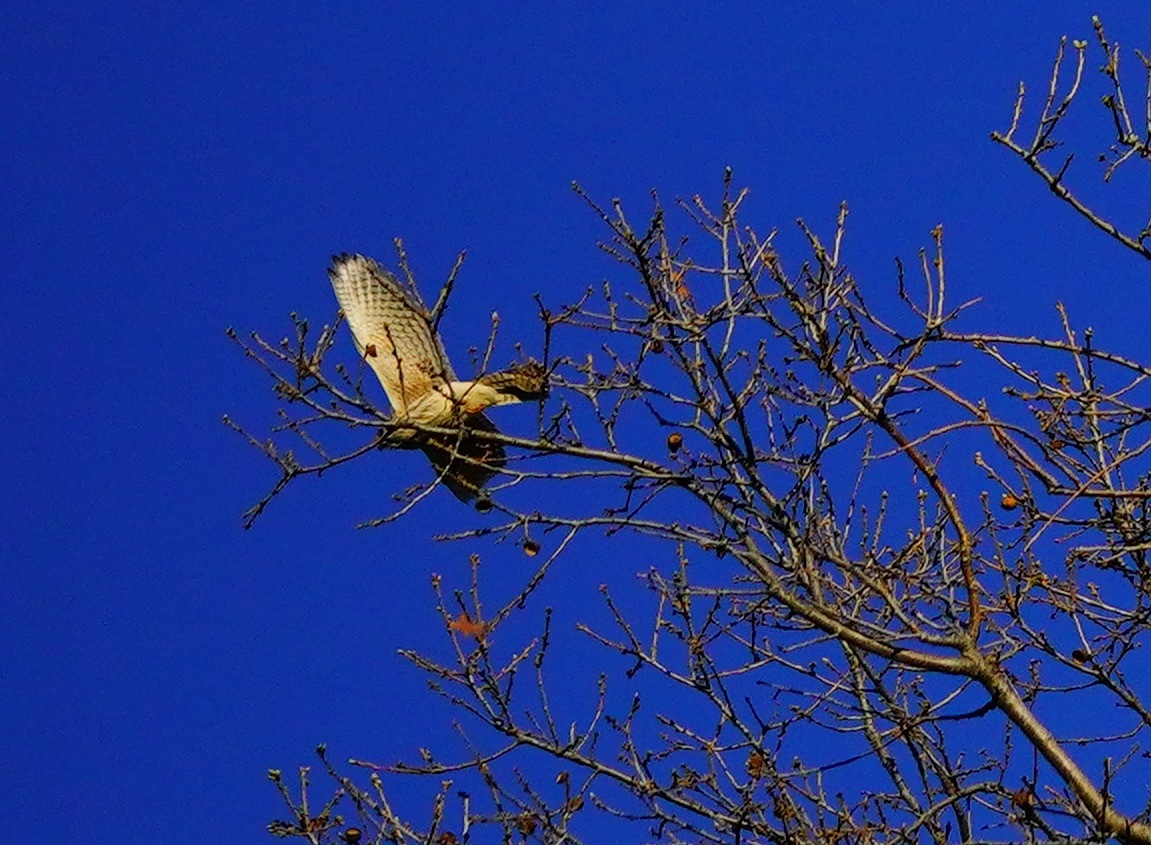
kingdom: Animalia
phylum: Chordata
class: Aves
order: Falconiformes
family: Falconidae
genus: Falco
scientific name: Falco sparverius
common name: American kestrel
